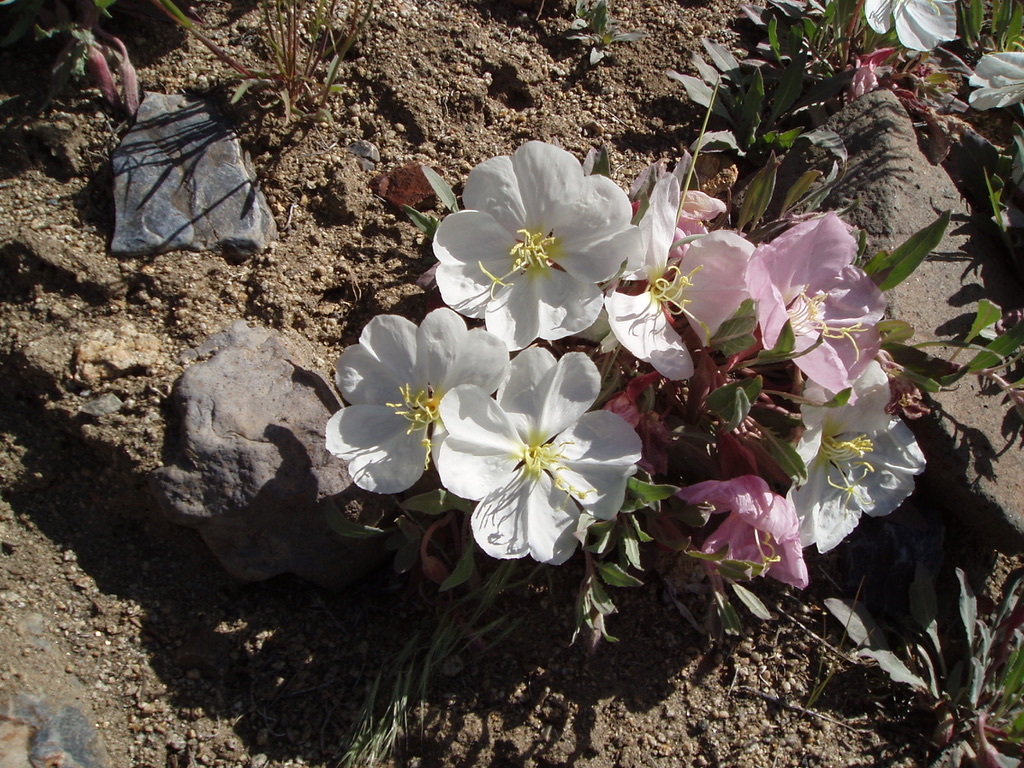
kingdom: Plantae
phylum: Tracheophyta
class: Magnoliopsida
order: Myrtales
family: Onagraceae
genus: Oenothera
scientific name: Oenothera cespitosa
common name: Tufted evening-primrose
